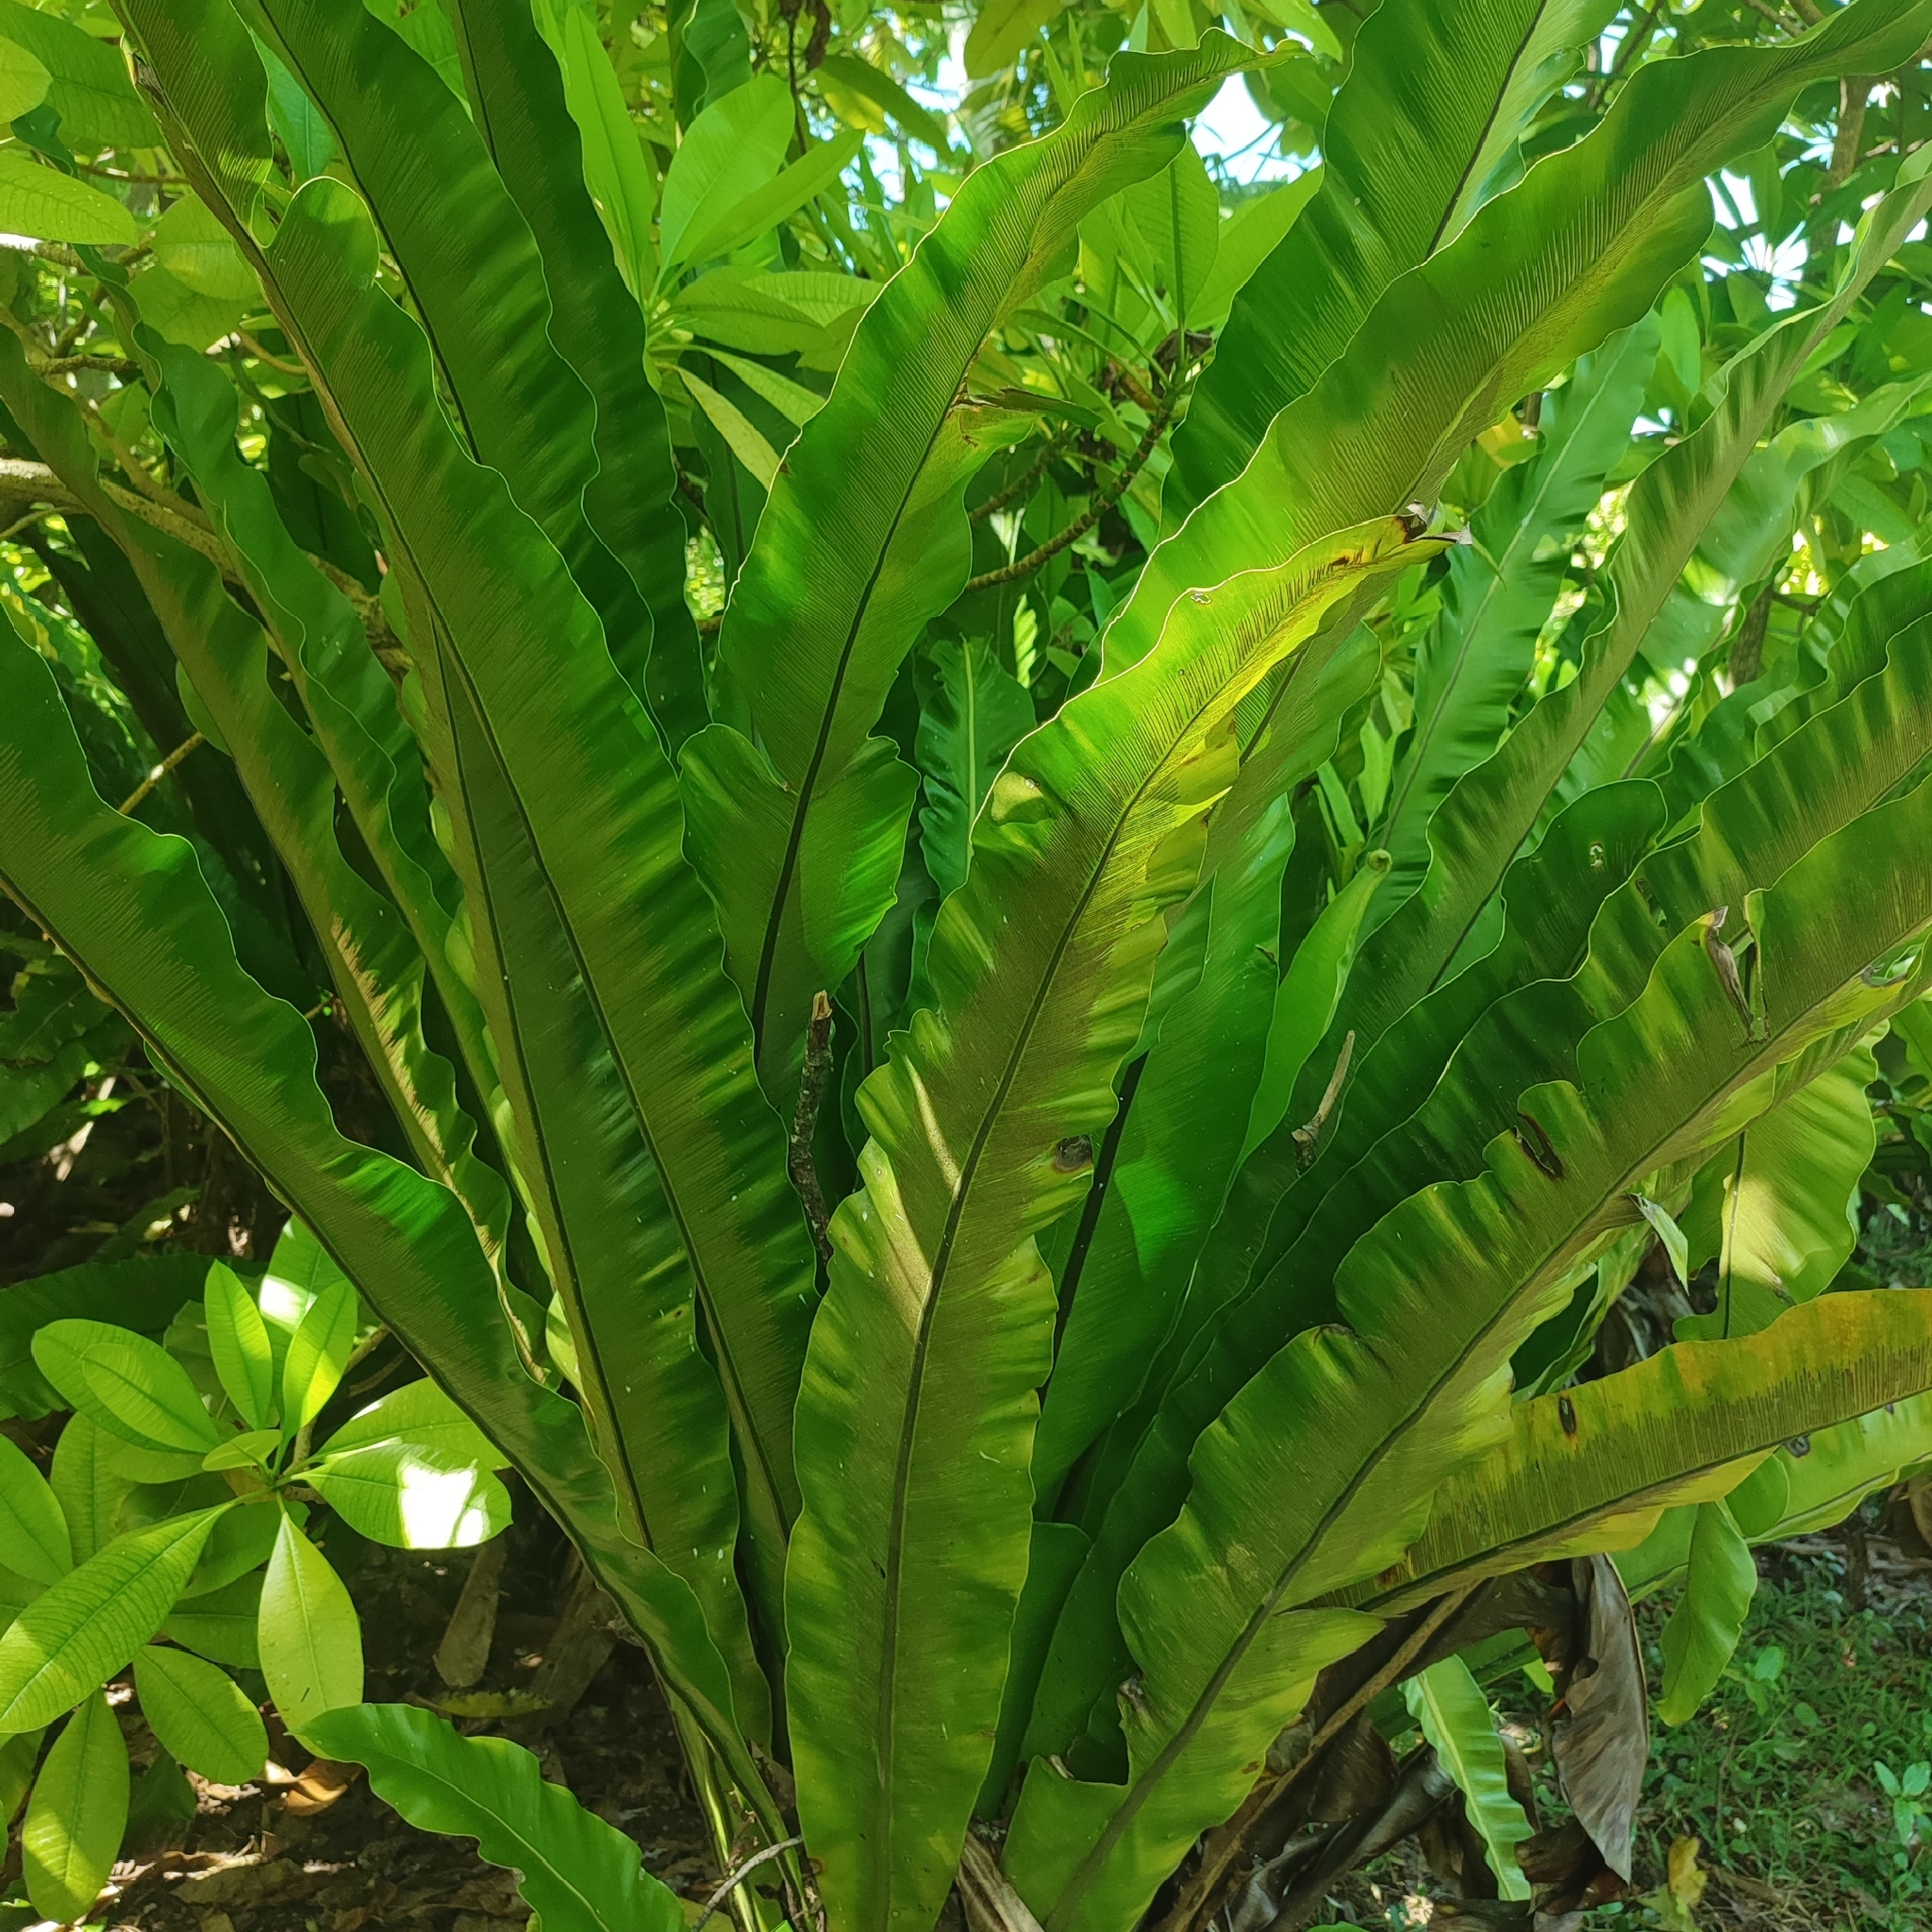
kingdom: Plantae
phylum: Tracheophyta
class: Polypodiopsida
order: Polypodiales
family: Aspleniaceae
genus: Asplenium
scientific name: Asplenium nidus
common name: Bird's-nest fern
